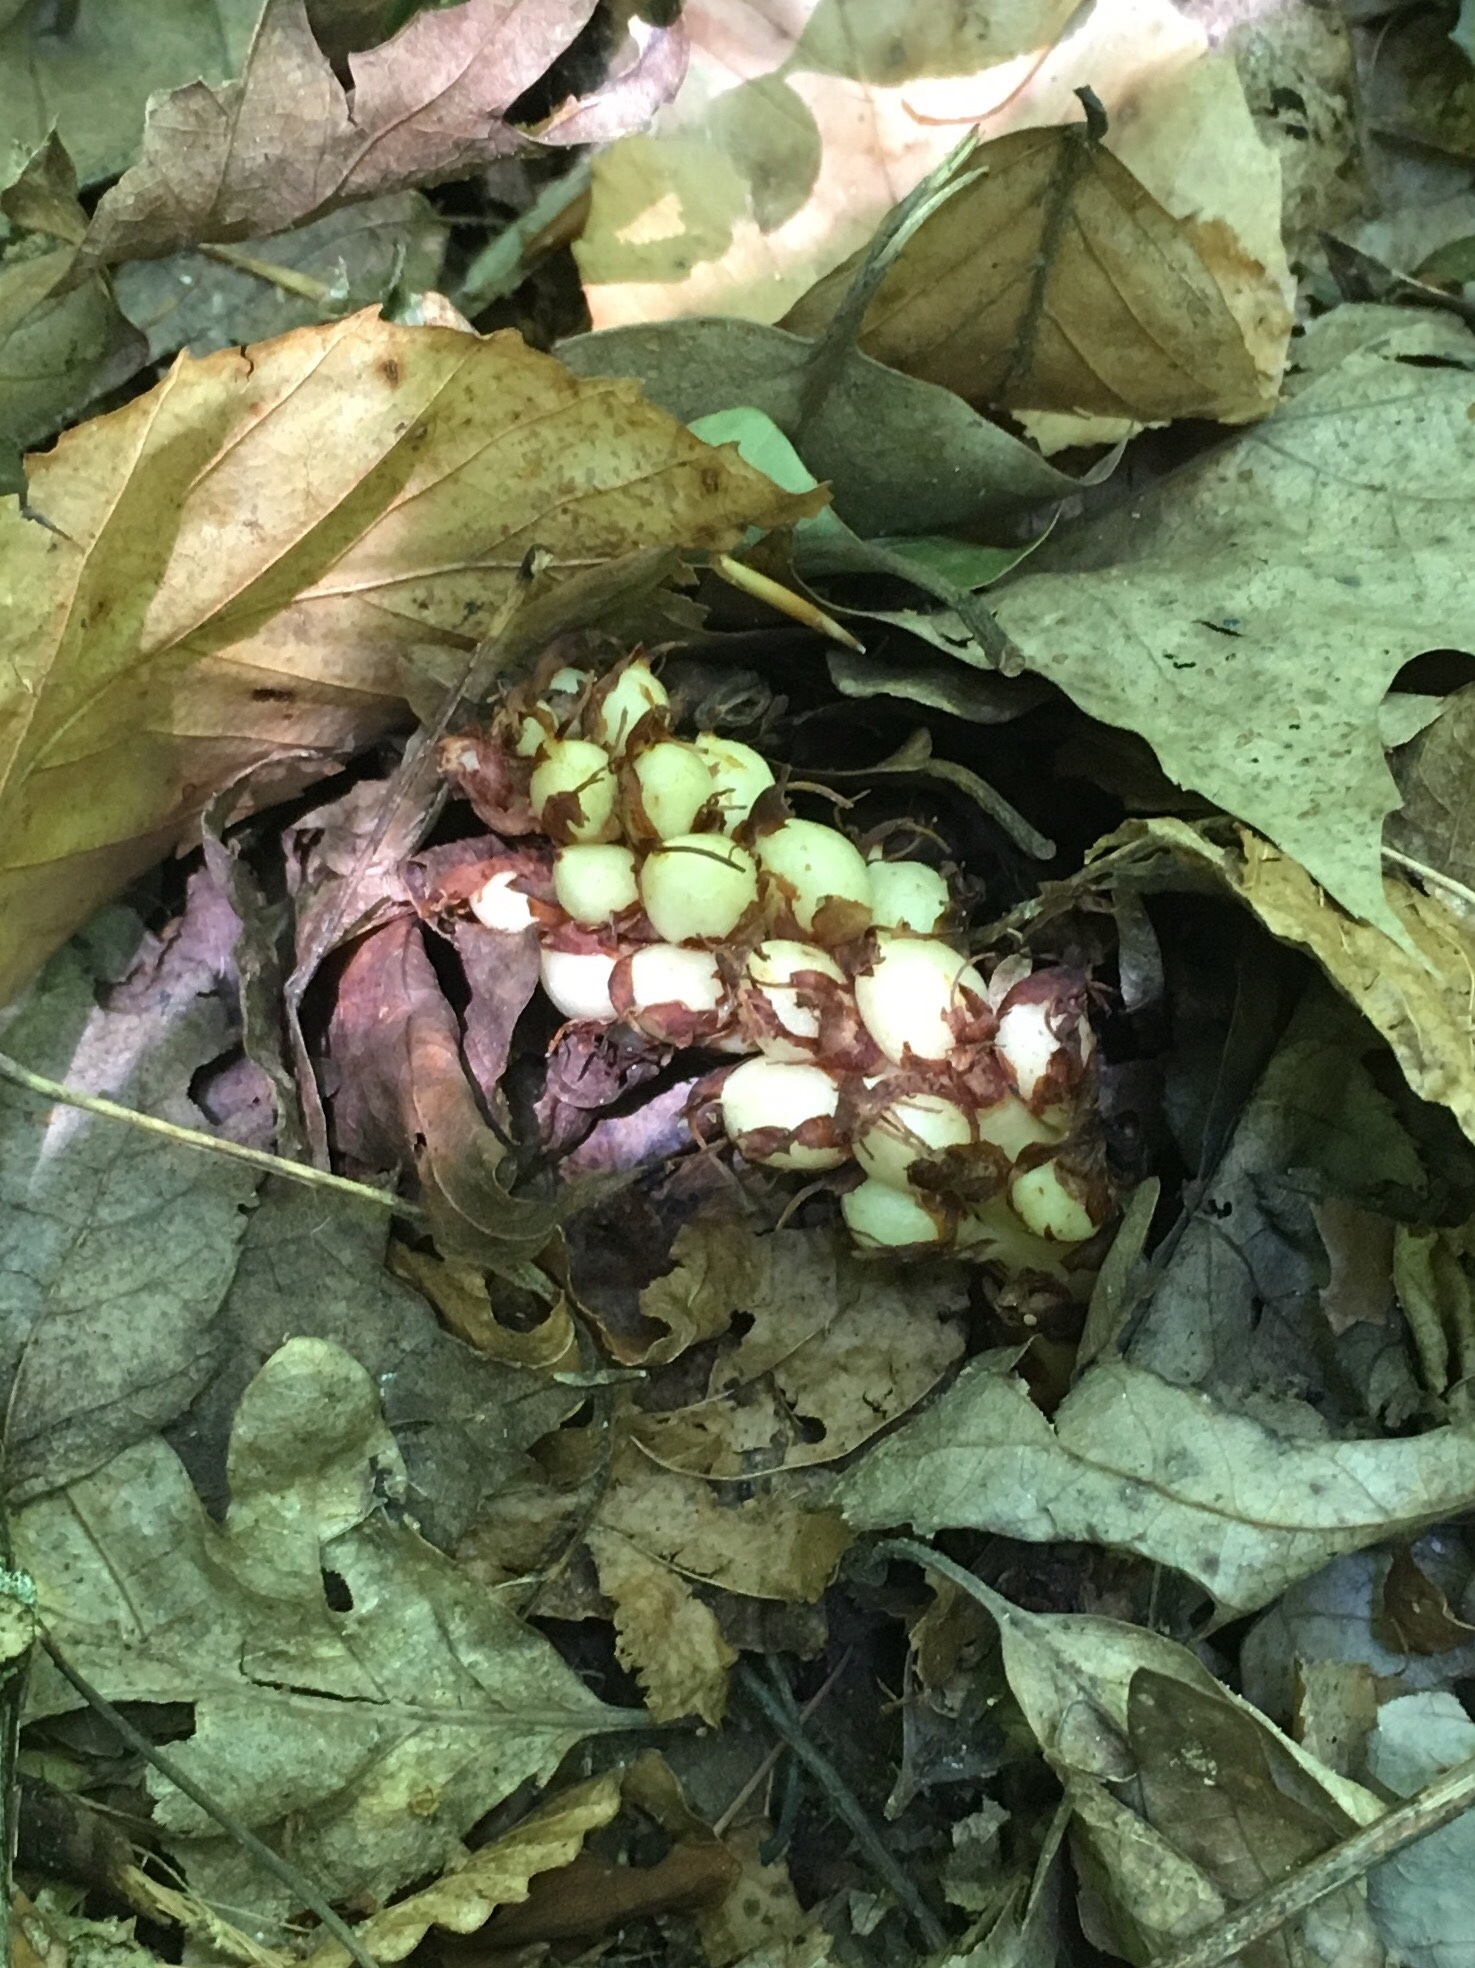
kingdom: Plantae
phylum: Tracheophyta
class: Magnoliopsida
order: Lamiales
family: Orobanchaceae
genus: Conopholis
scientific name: Conopholis americana
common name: American cancer-root
